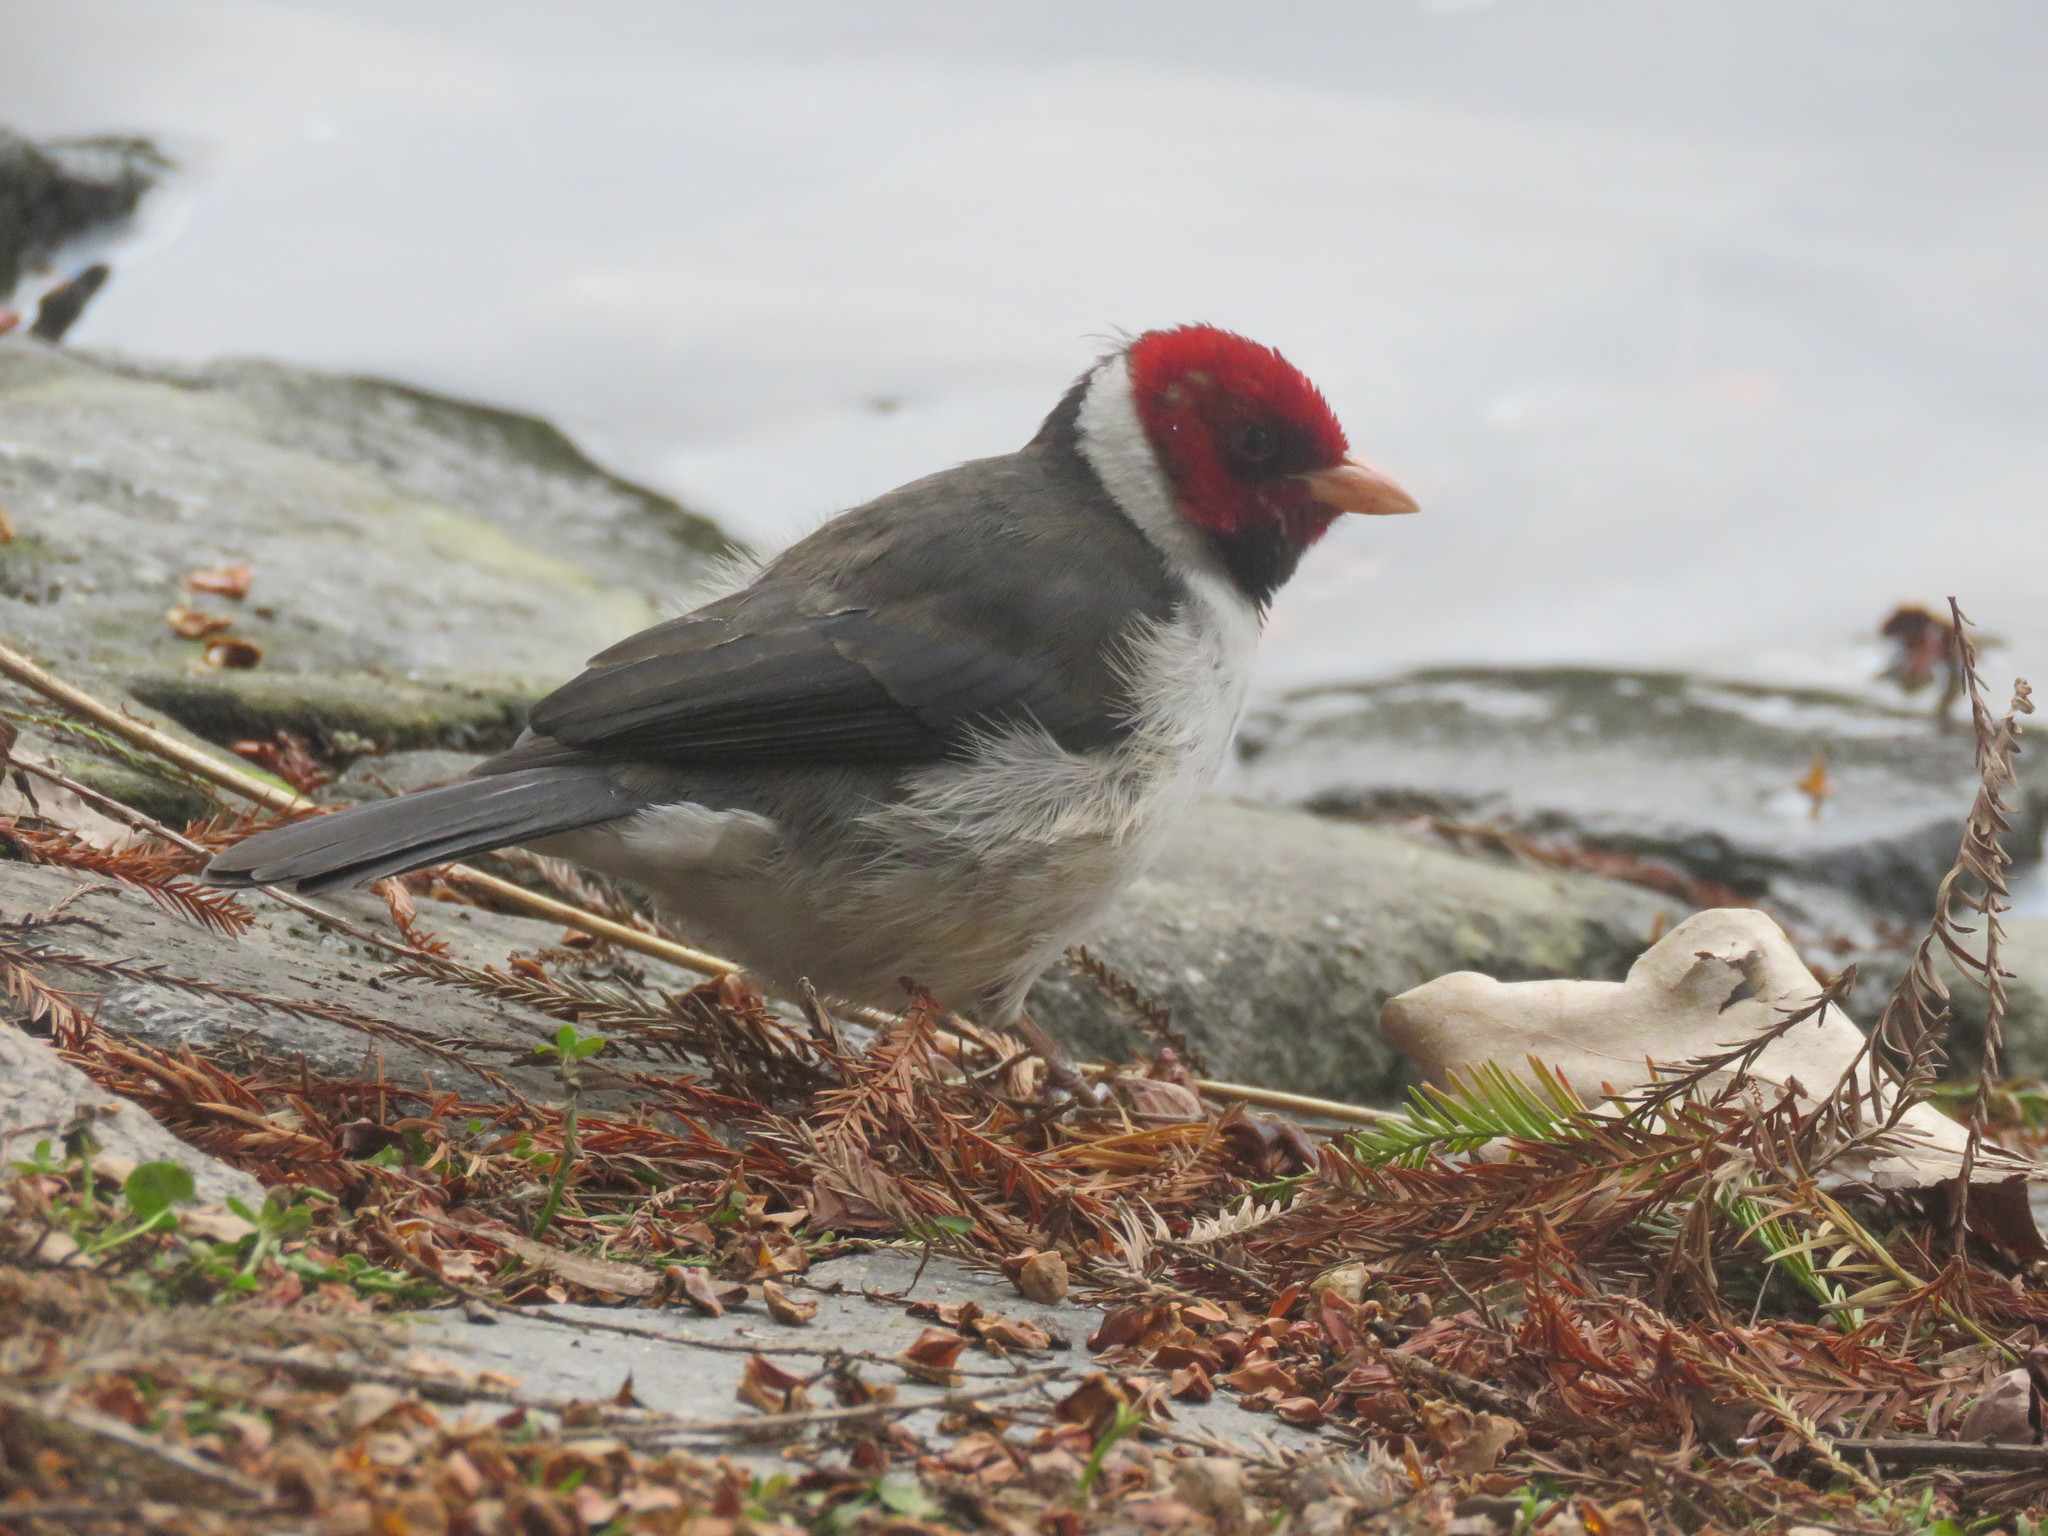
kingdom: Animalia
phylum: Chordata
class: Aves
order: Passeriformes
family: Thraupidae
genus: Paroaria
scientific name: Paroaria capitata
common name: Yellow-billed cardinal
